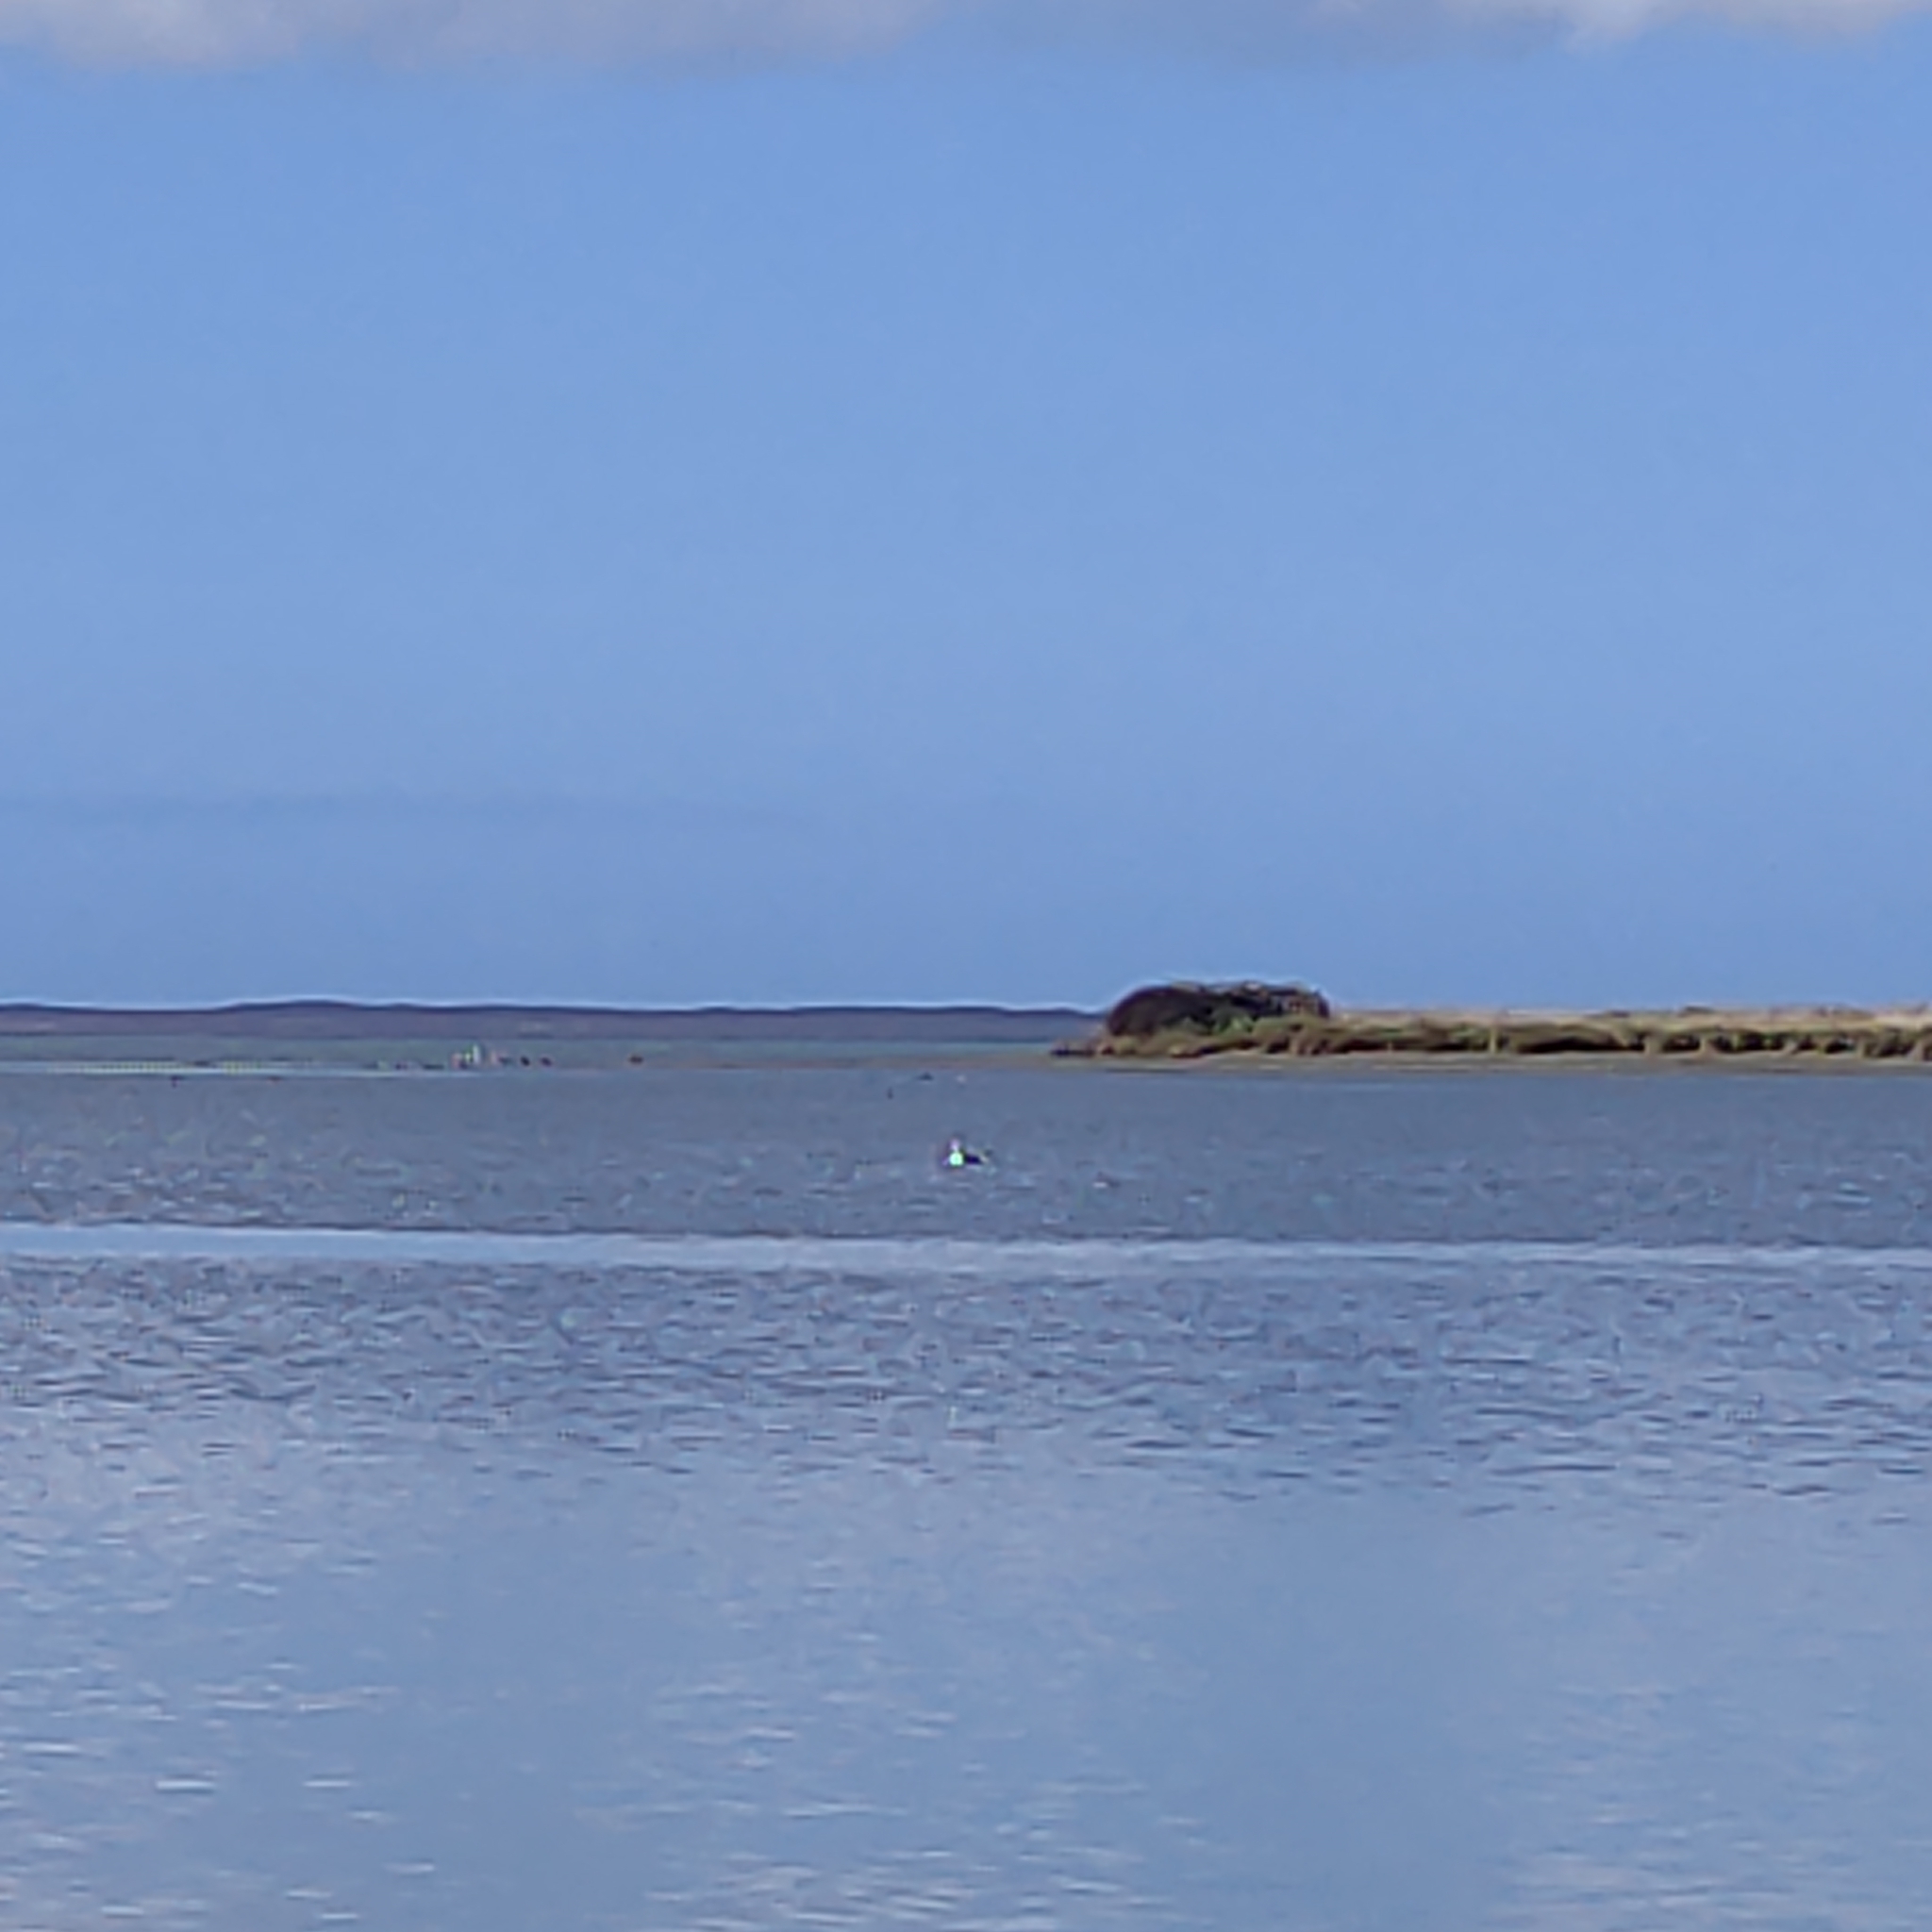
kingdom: Animalia
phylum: Chordata
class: Aves
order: Charadriiformes
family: Laridae
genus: Larus
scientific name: Larus dominicanus
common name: Kelp gull
